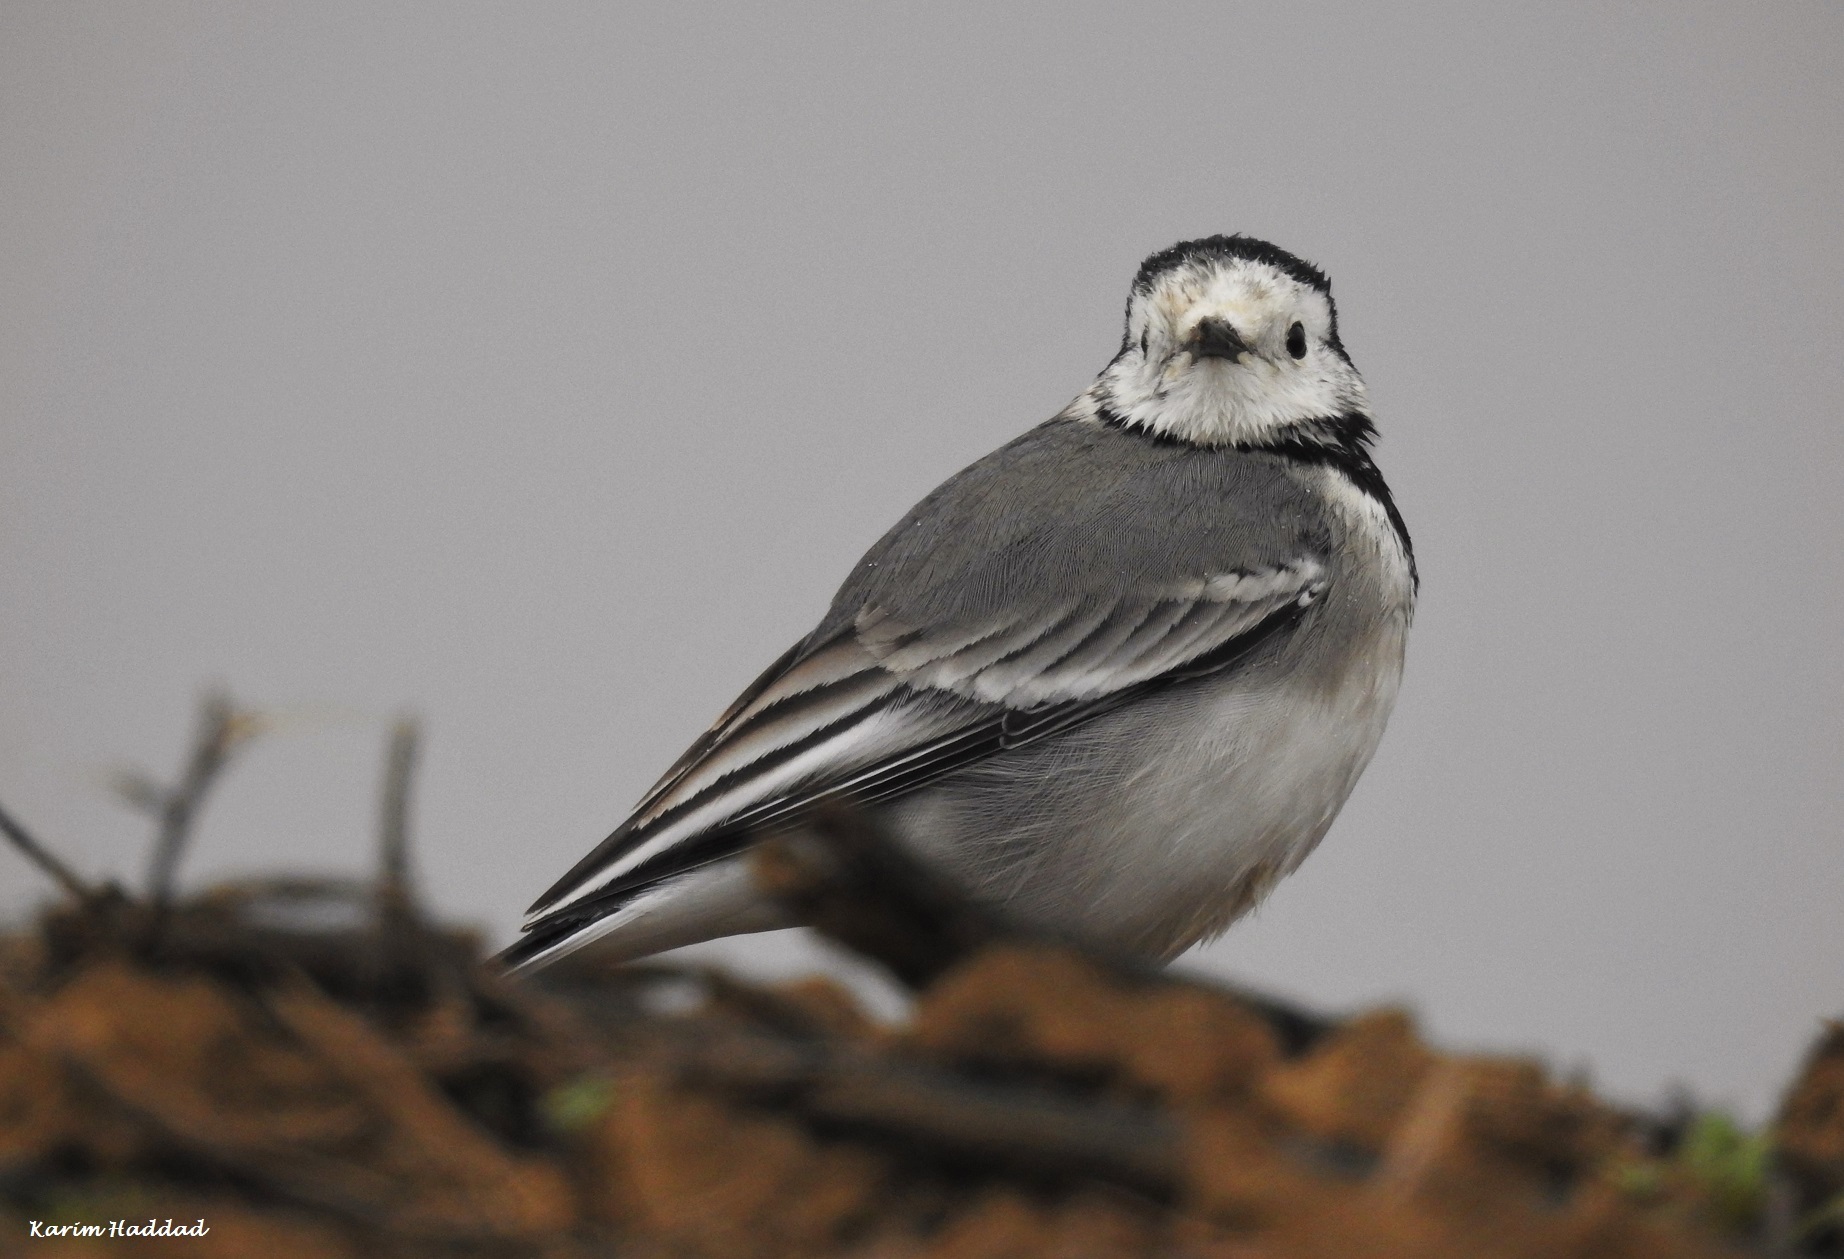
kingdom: Animalia
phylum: Chordata
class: Aves
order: Passeriformes
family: Motacillidae
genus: Motacilla
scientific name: Motacilla alba
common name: White wagtail
